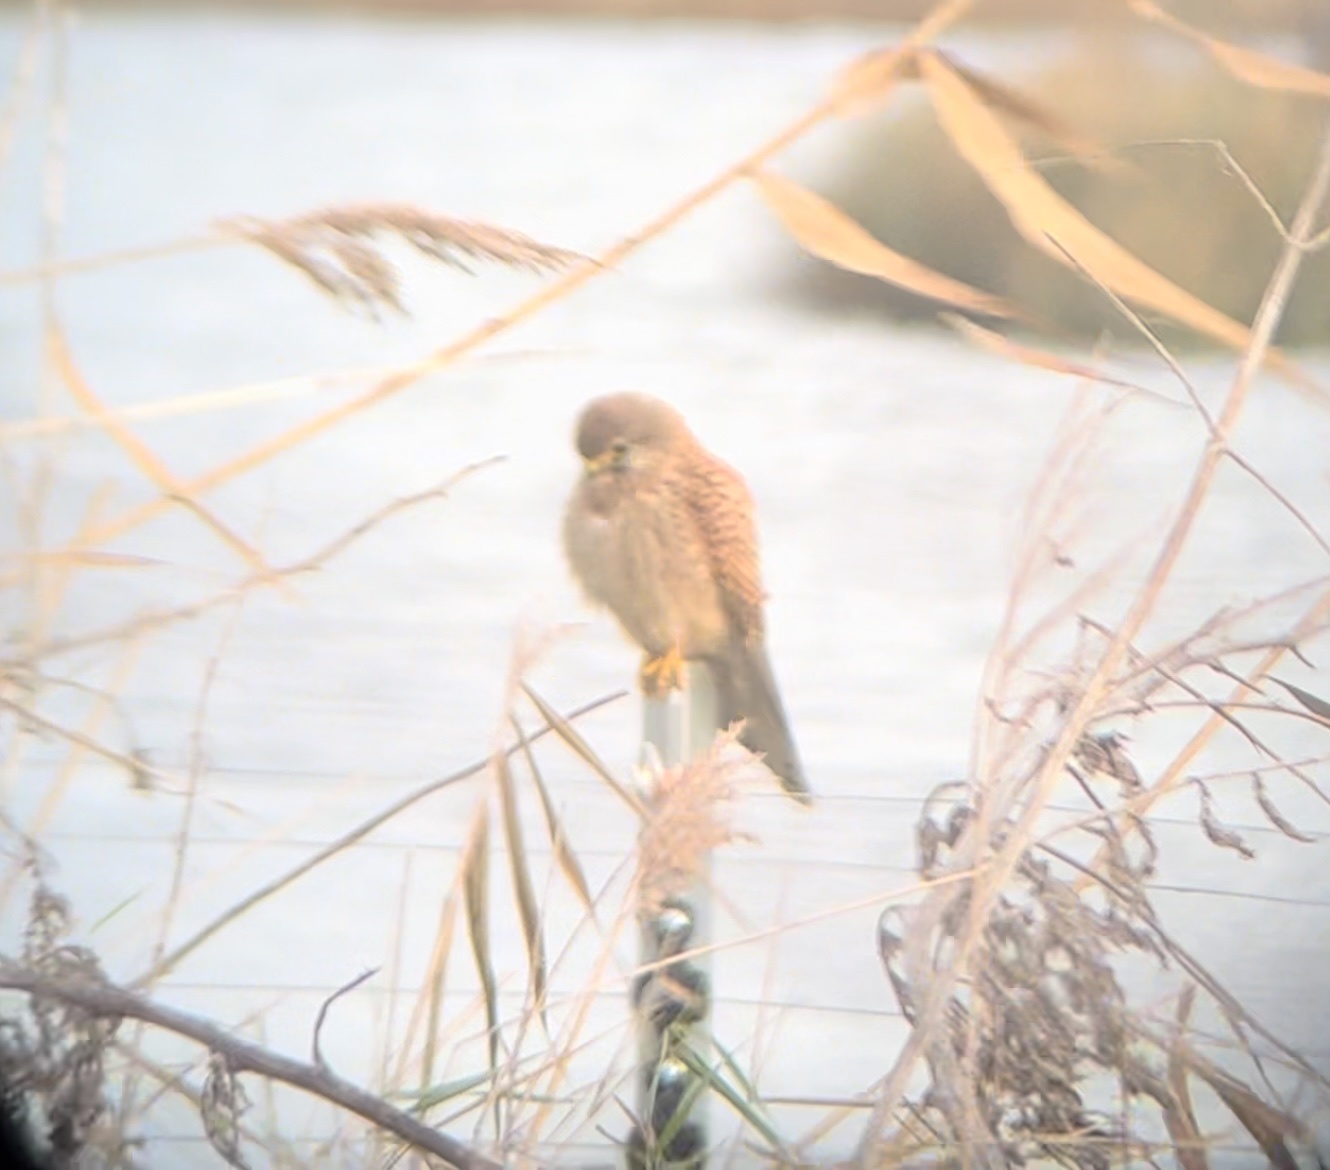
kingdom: Animalia
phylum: Chordata
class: Aves
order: Falconiformes
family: Falconidae
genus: Falco
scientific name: Falco tinnunculus
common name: Common kestrel
